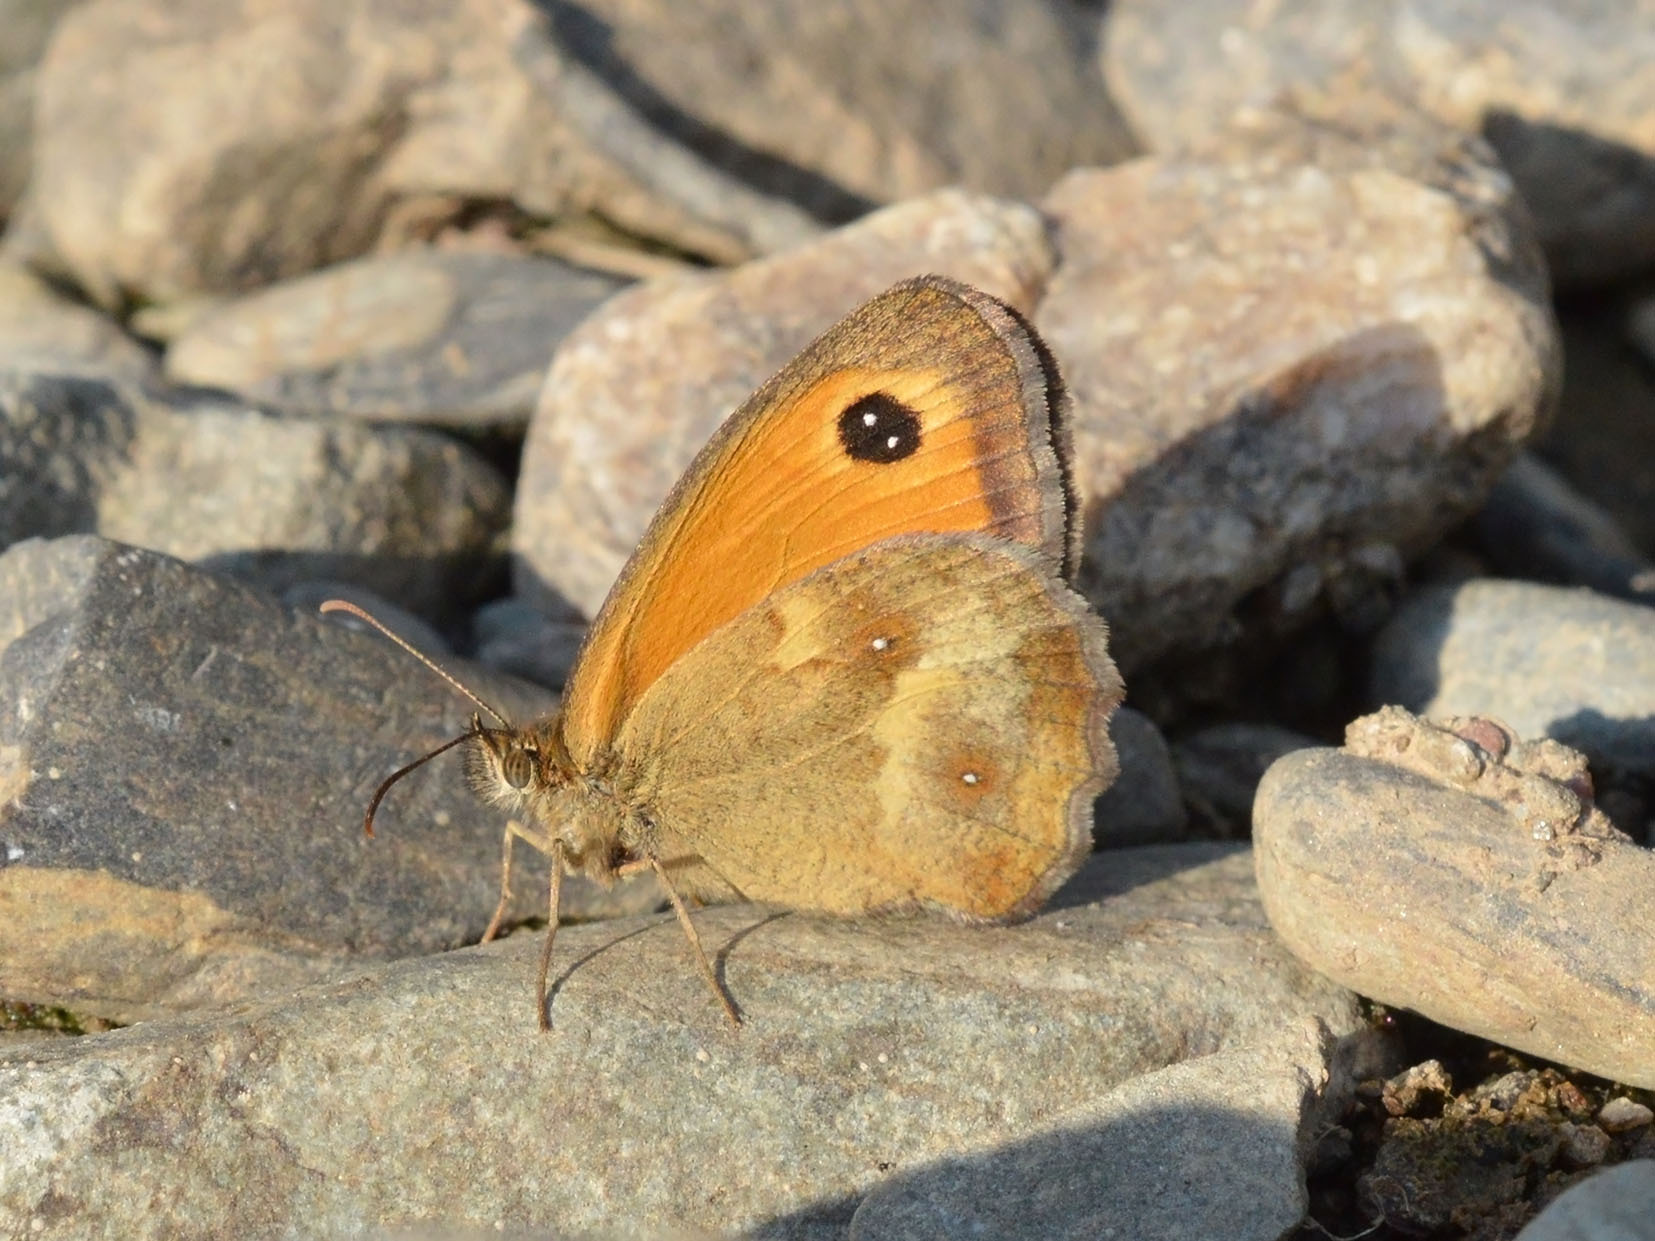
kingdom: Animalia
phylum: Arthropoda
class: Insecta
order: Lepidoptera
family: Nymphalidae
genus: Pyronia
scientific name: Pyronia tithonus
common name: Gatekeeper
